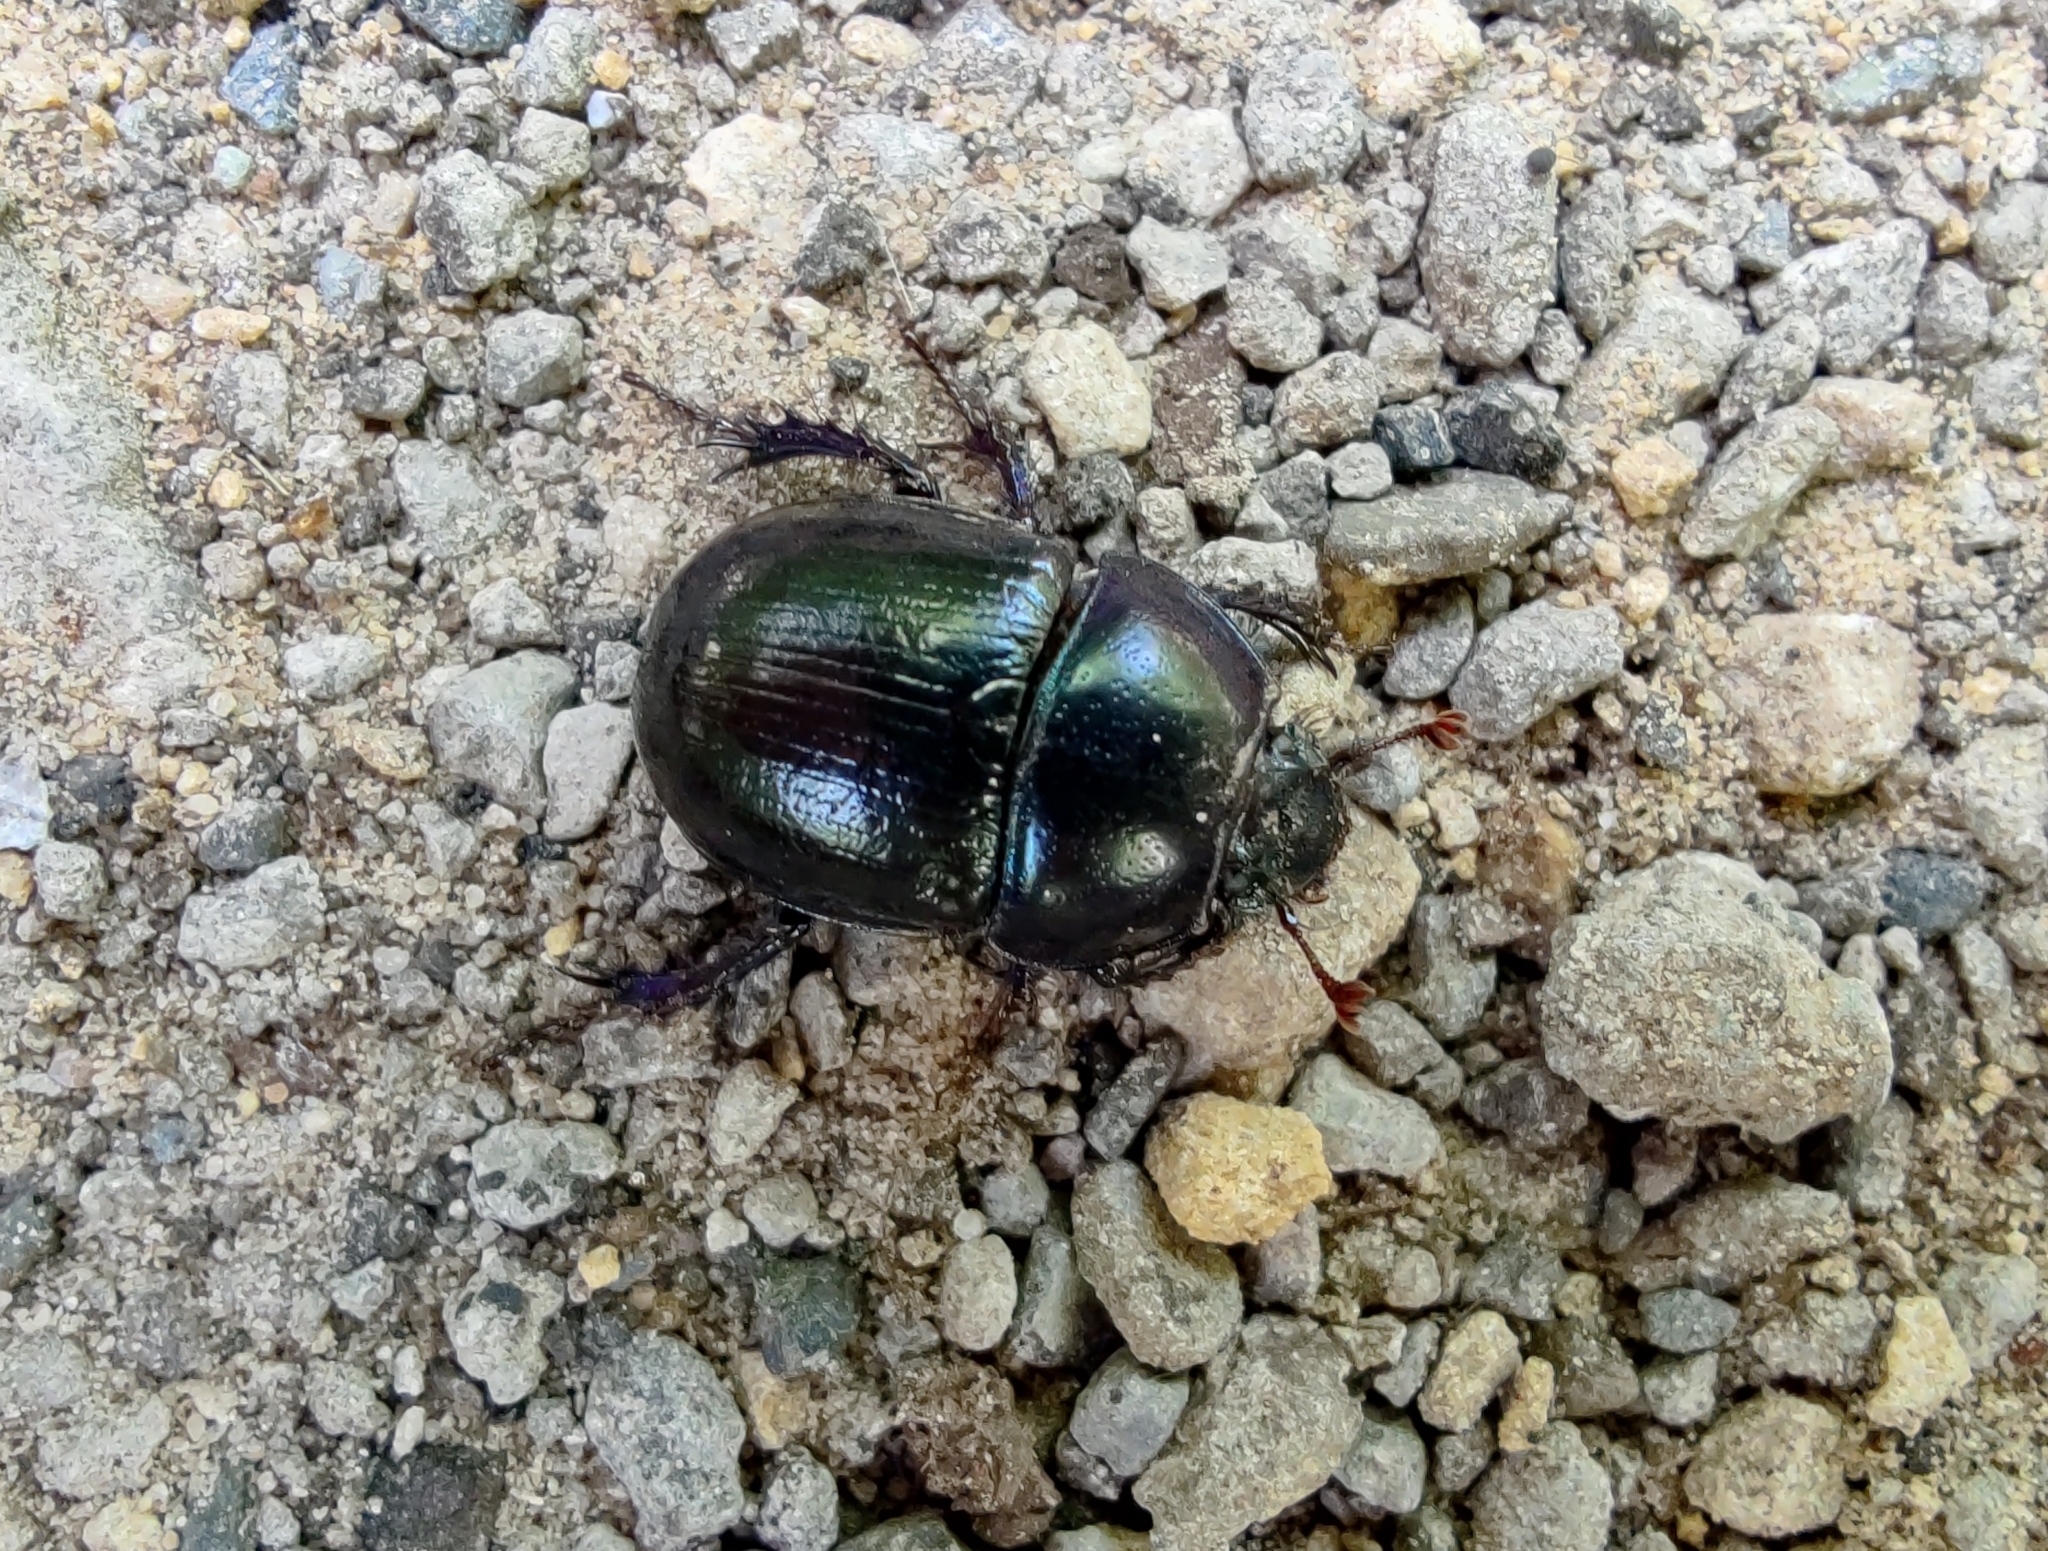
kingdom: Animalia
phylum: Arthropoda
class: Insecta
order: Coleoptera
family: Geotrupidae
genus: Anoplotrupes
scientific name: Anoplotrupes stercorosus
